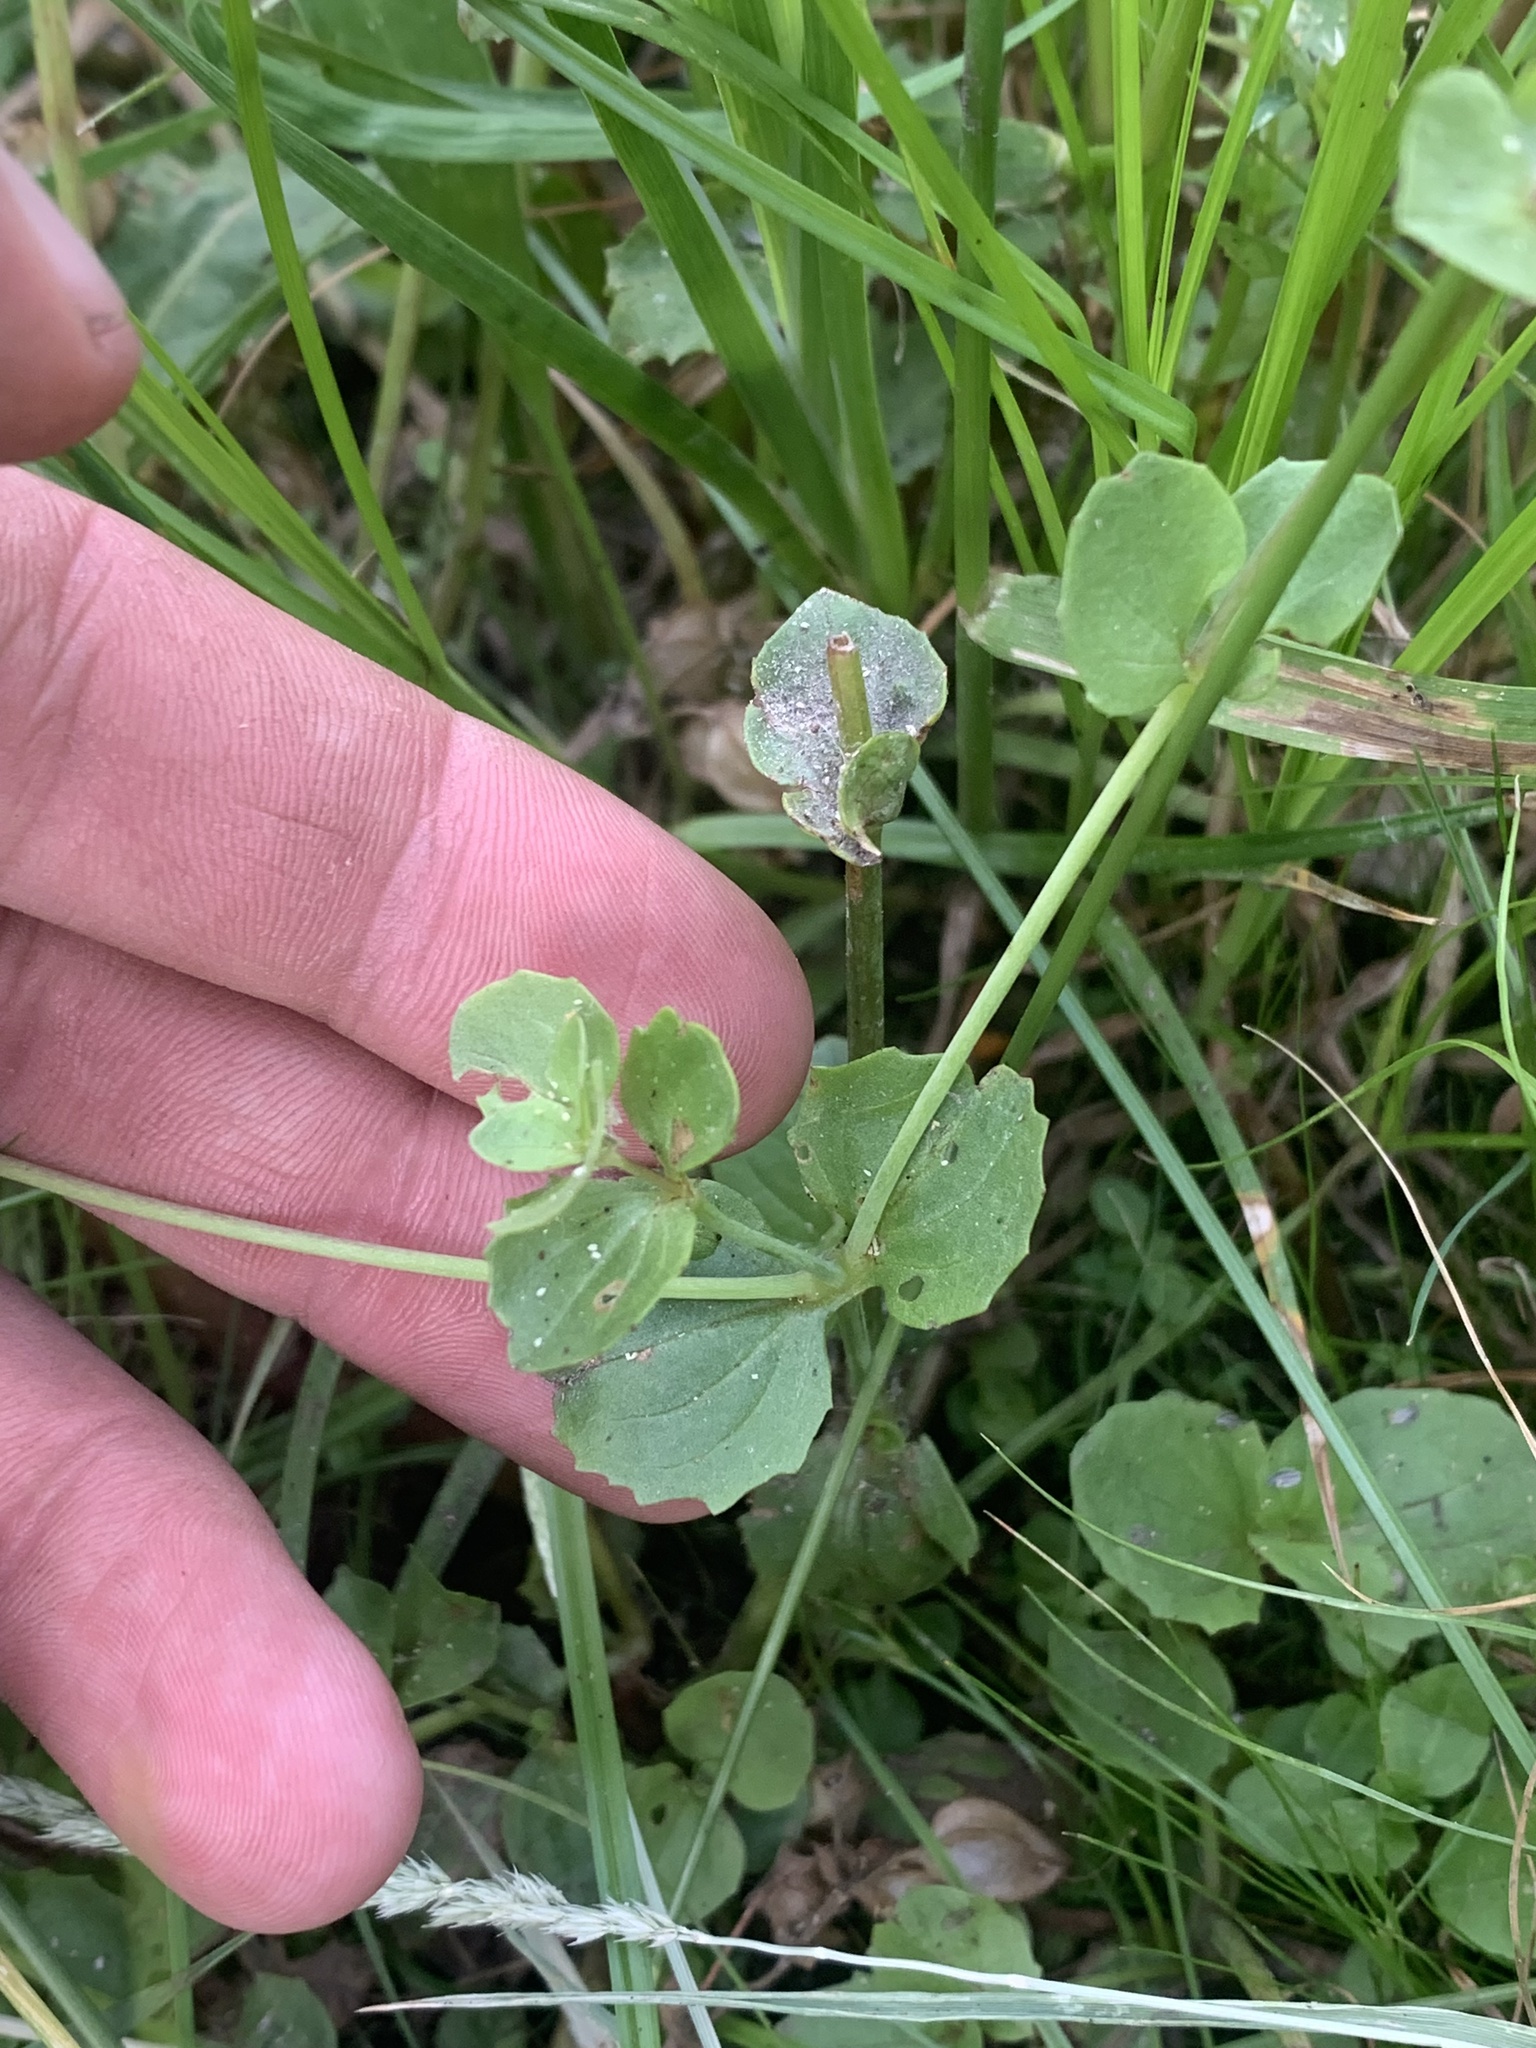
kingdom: Plantae
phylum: Tracheophyta
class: Magnoliopsida
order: Lamiales
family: Phrymaceae
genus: Erythranthe
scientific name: Erythranthe guttata
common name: Monkeyflower
